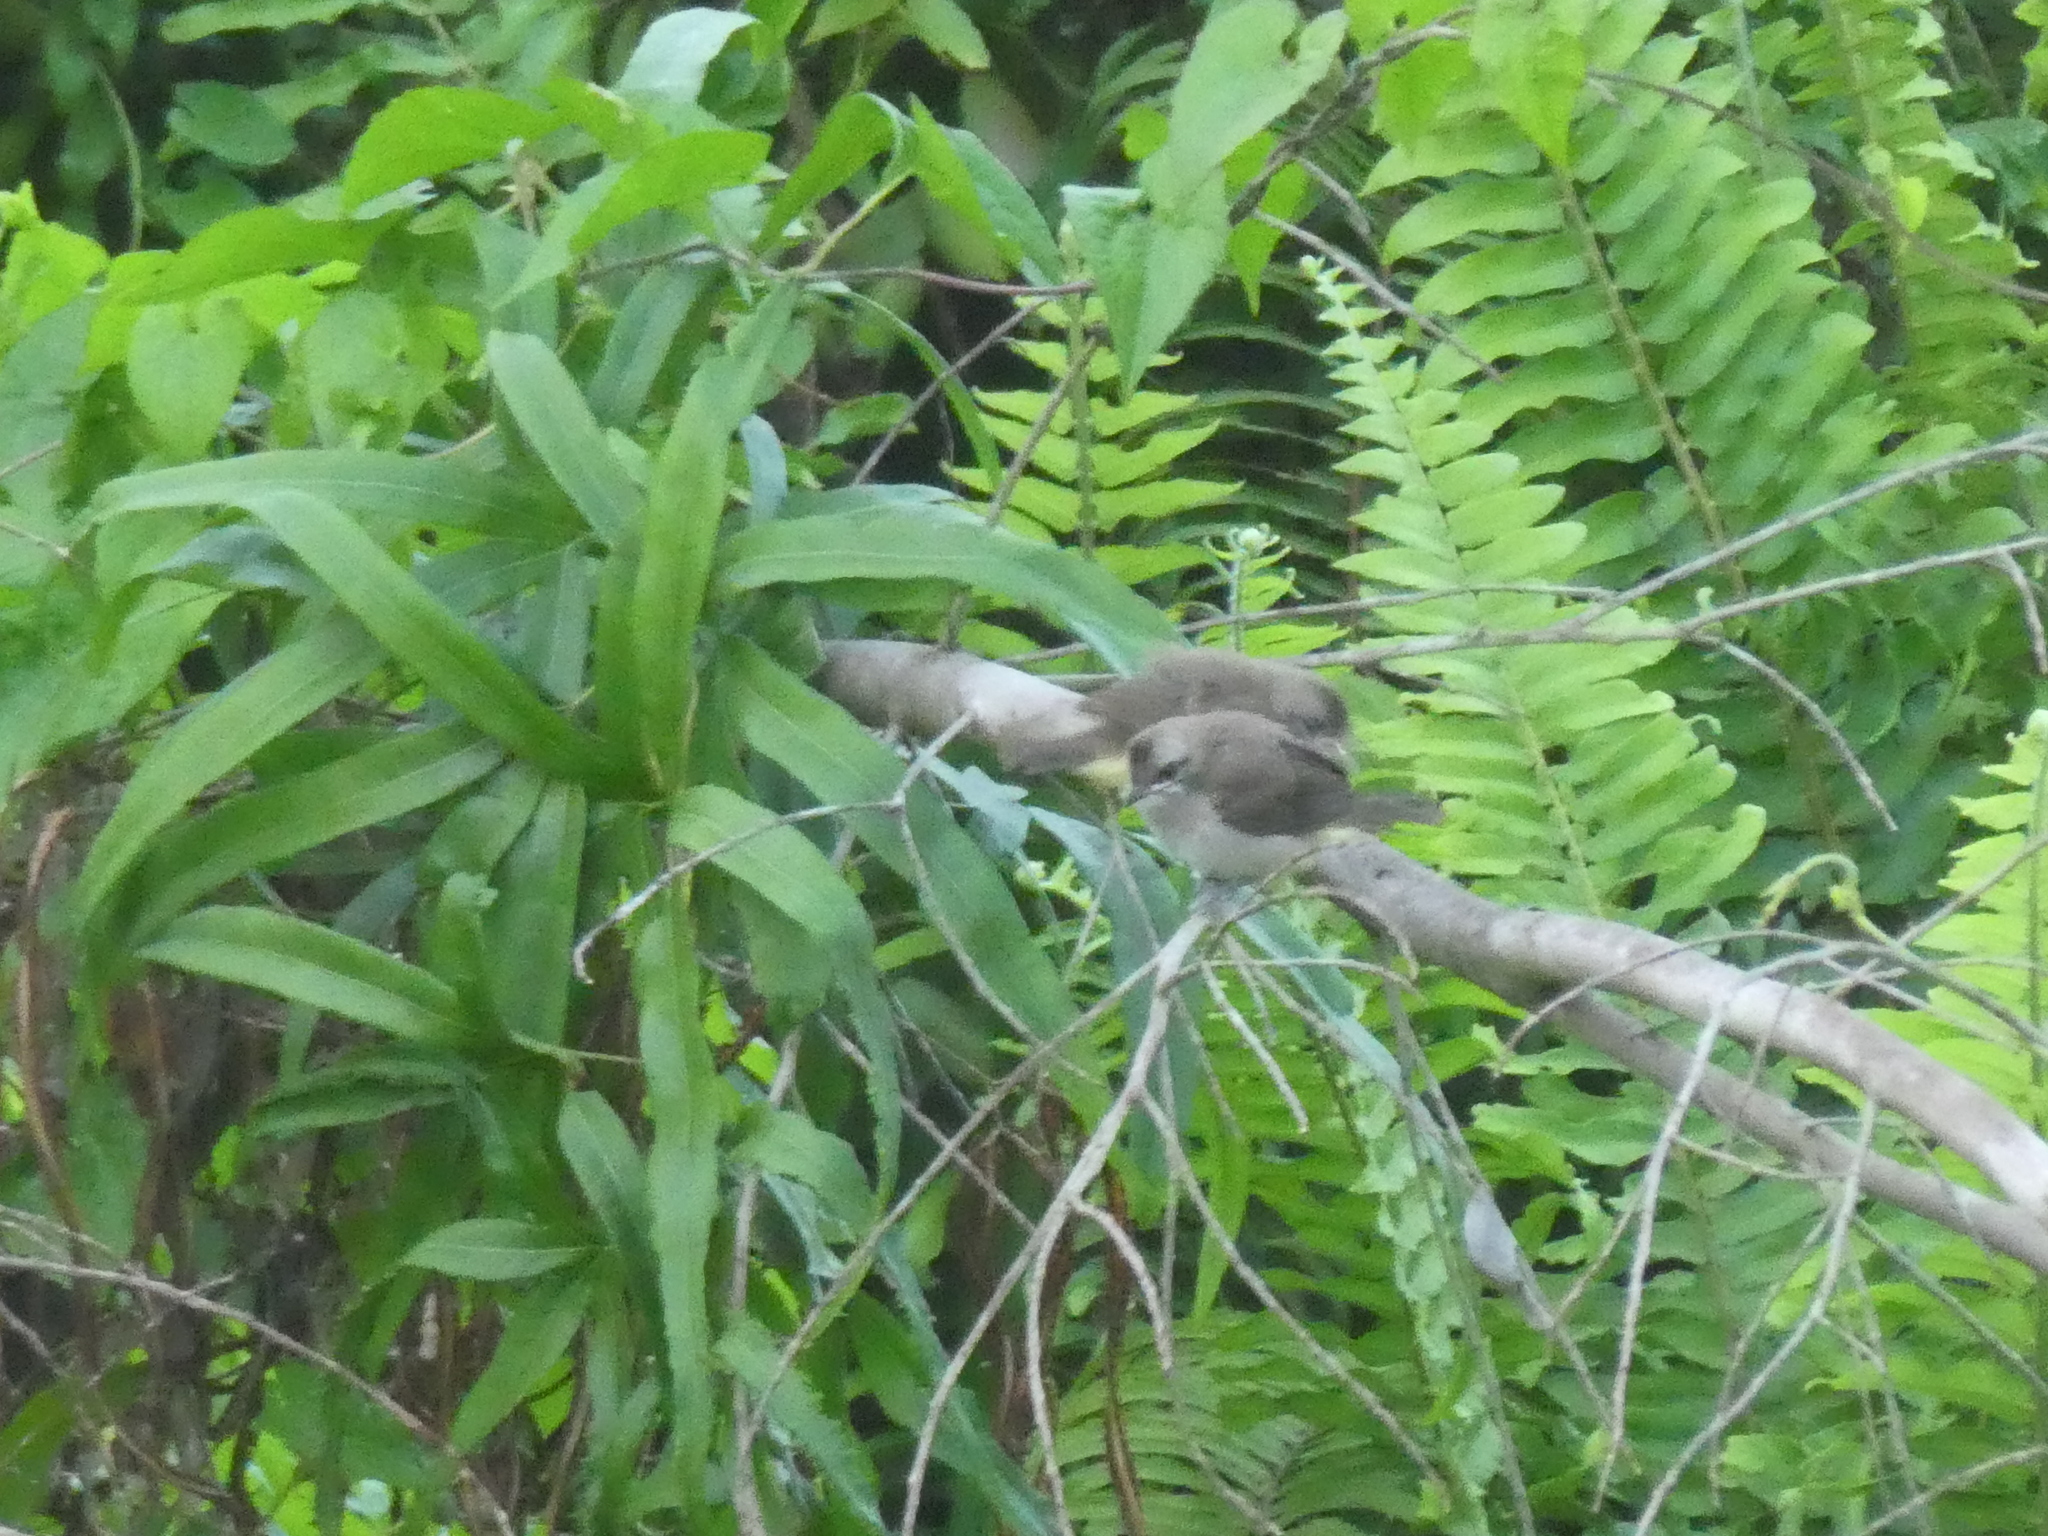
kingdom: Animalia
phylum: Chordata
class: Aves
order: Passeriformes
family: Pycnonotidae
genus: Pycnonotus
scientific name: Pycnonotus goiavier
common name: Yellow-vented bulbul
